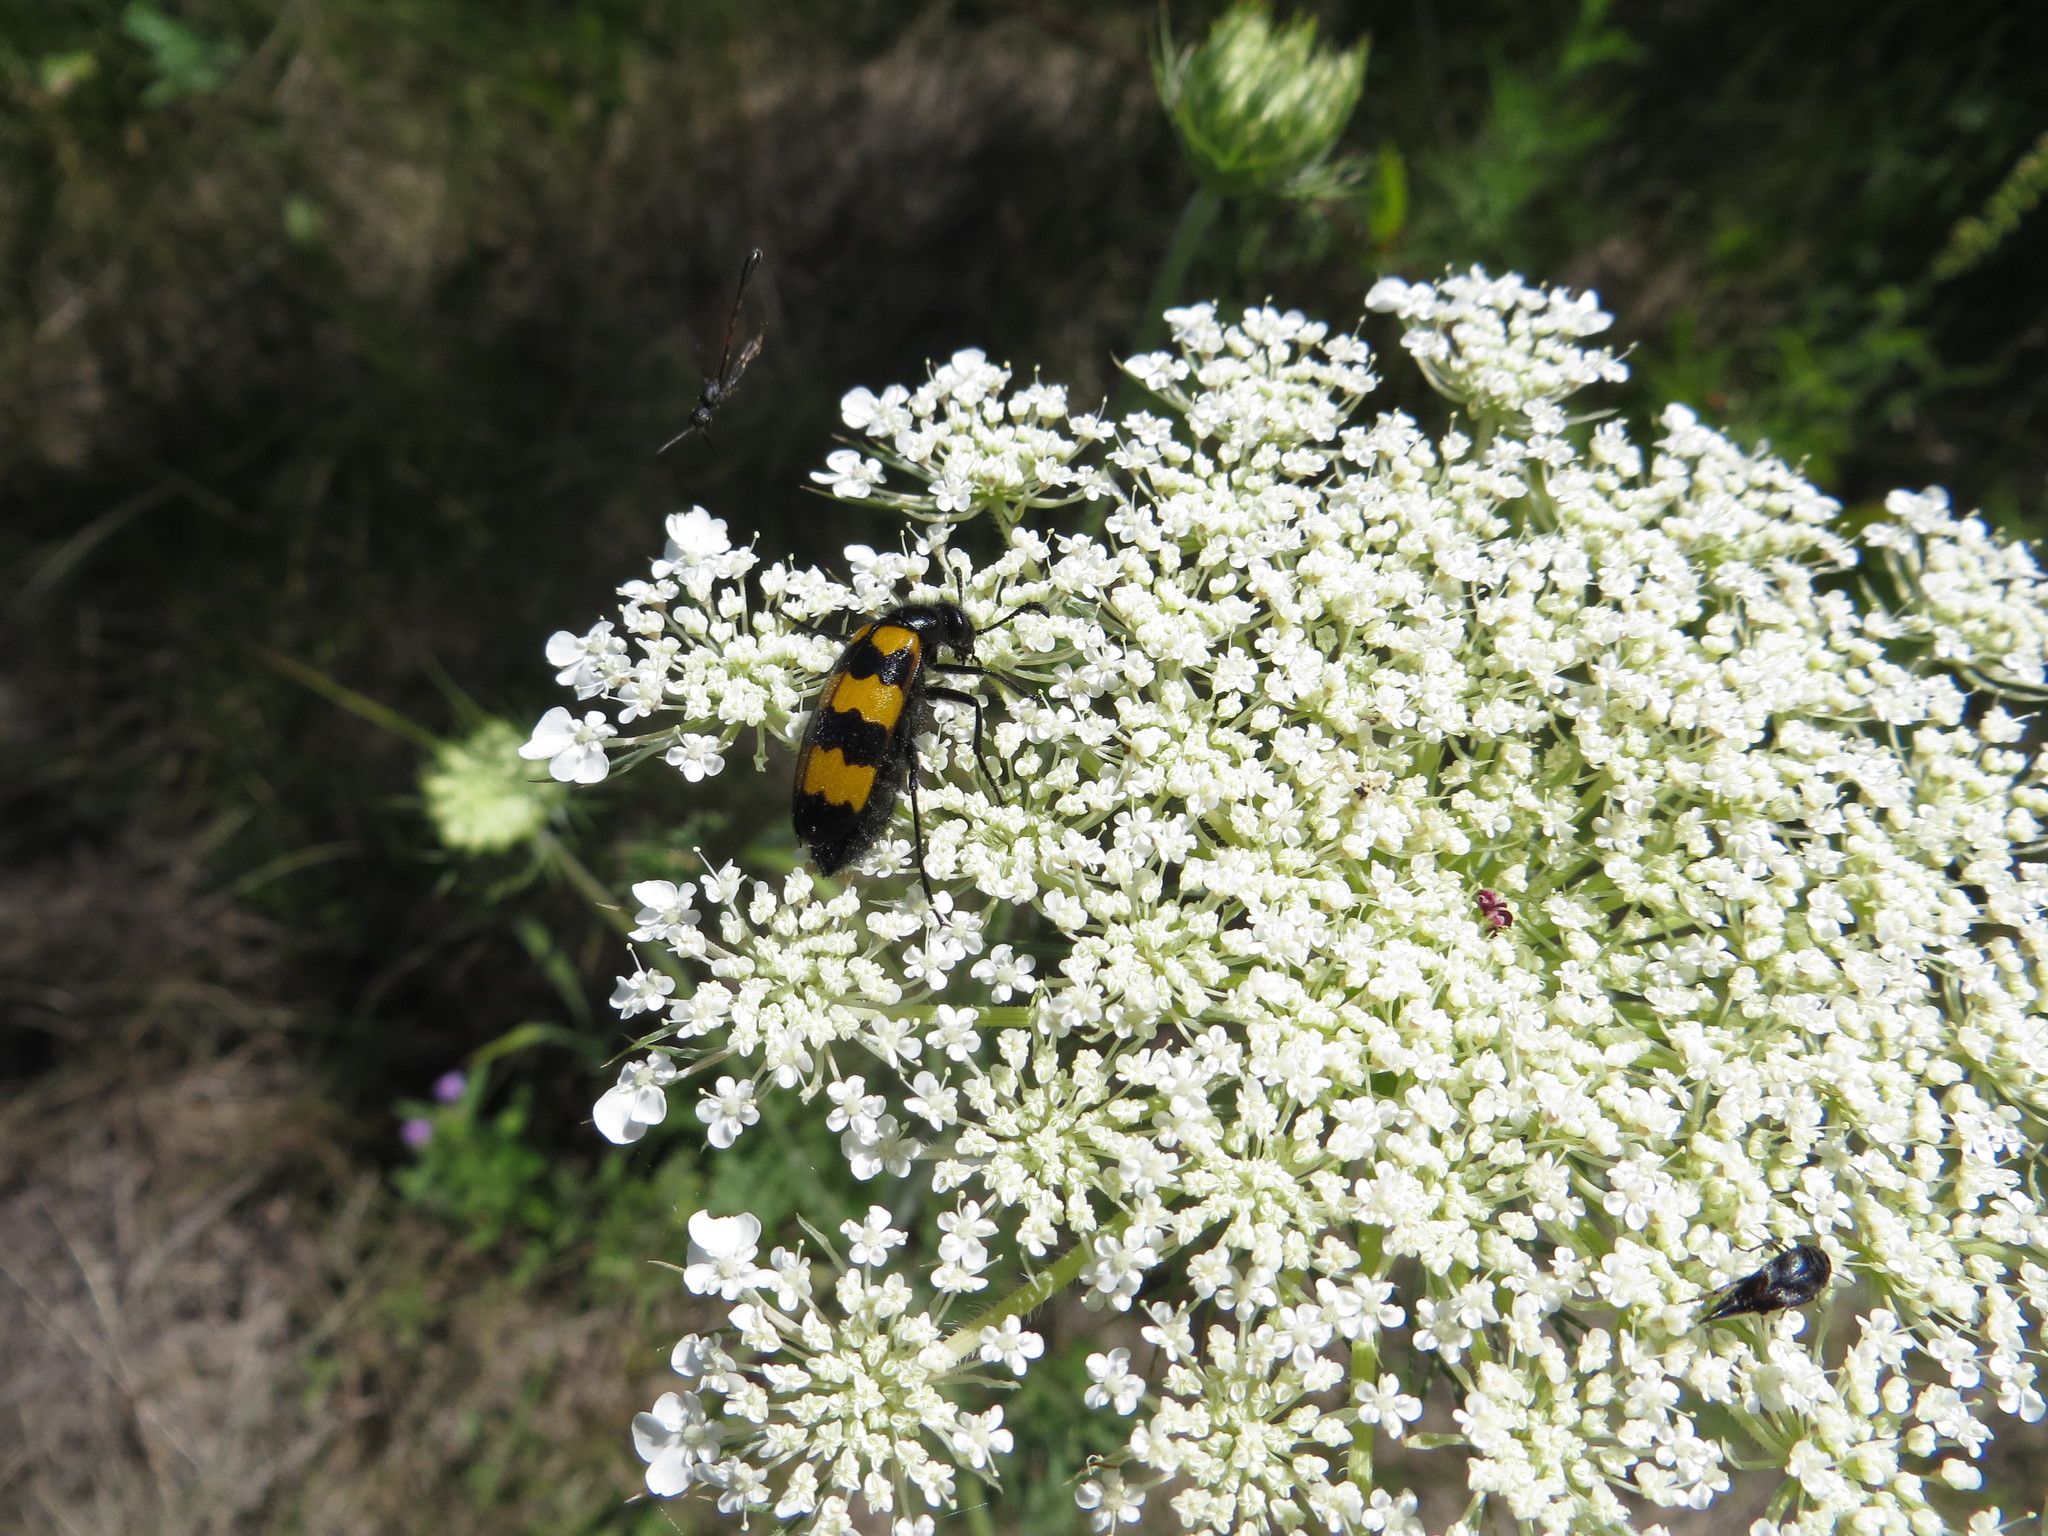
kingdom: Animalia
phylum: Arthropoda
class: Insecta
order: Coleoptera
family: Meloidae
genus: Mylabris
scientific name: Mylabris variabilis
